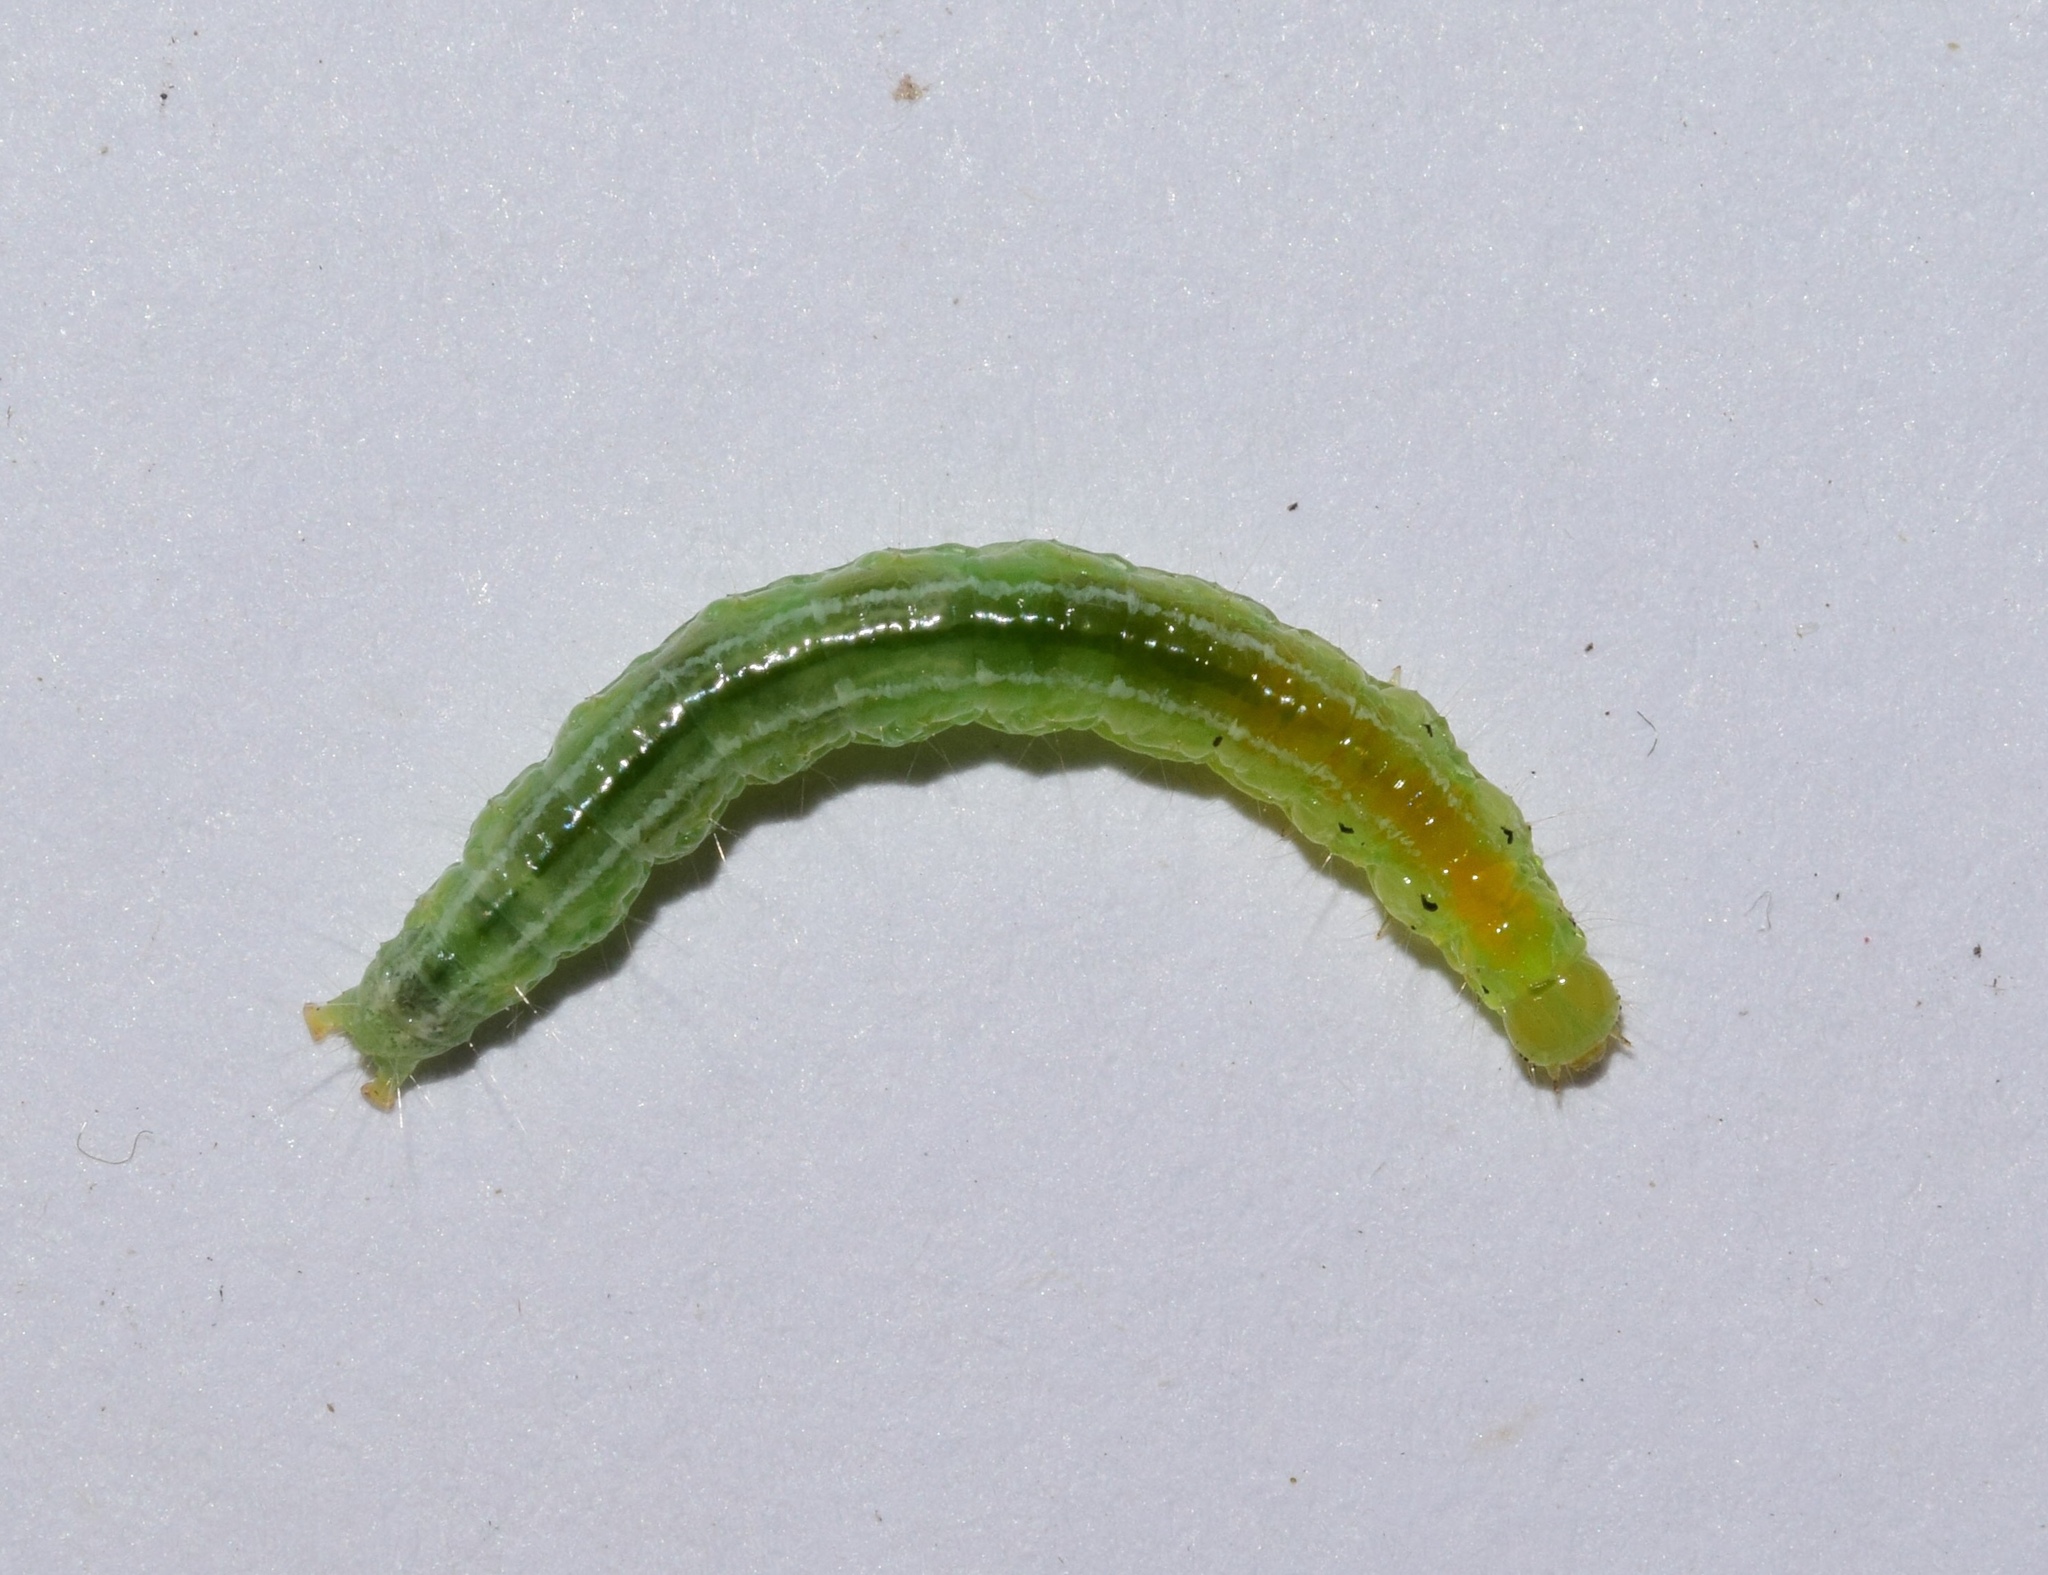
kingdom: Animalia
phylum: Arthropoda
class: Insecta
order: Lepidoptera
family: Crambidae
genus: Antigastra
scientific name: Antigastra morysalis
